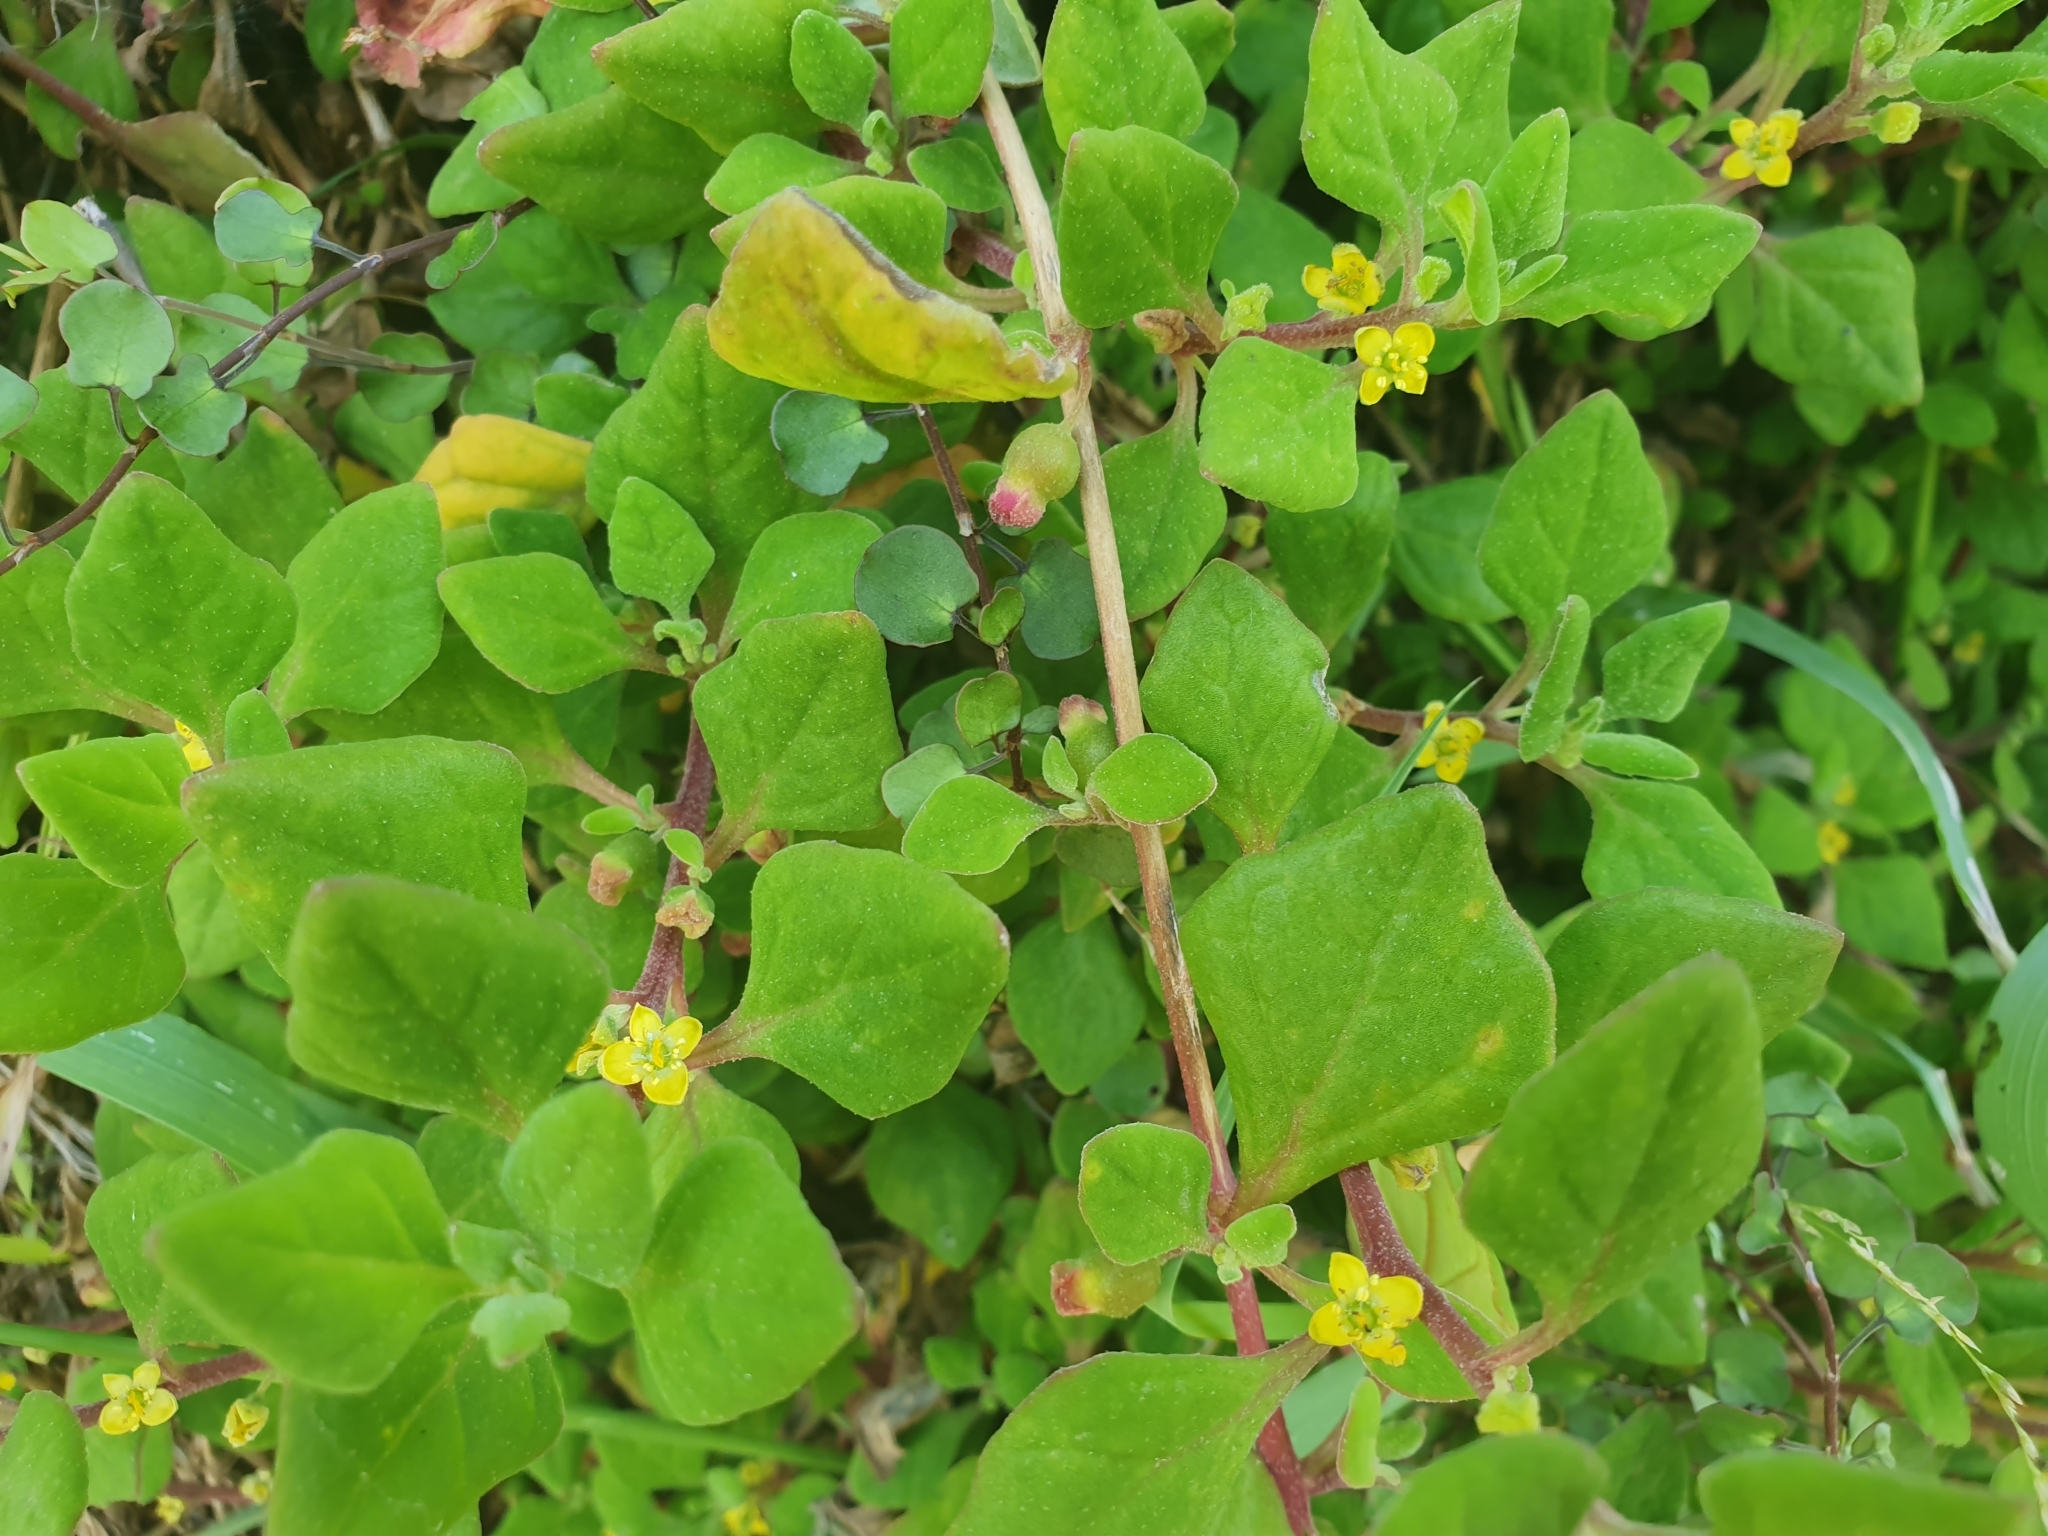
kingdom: Plantae
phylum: Tracheophyta
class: Magnoliopsida
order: Caryophyllales
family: Aizoaceae
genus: Tetragonia
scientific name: Tetragonia implexicoma
